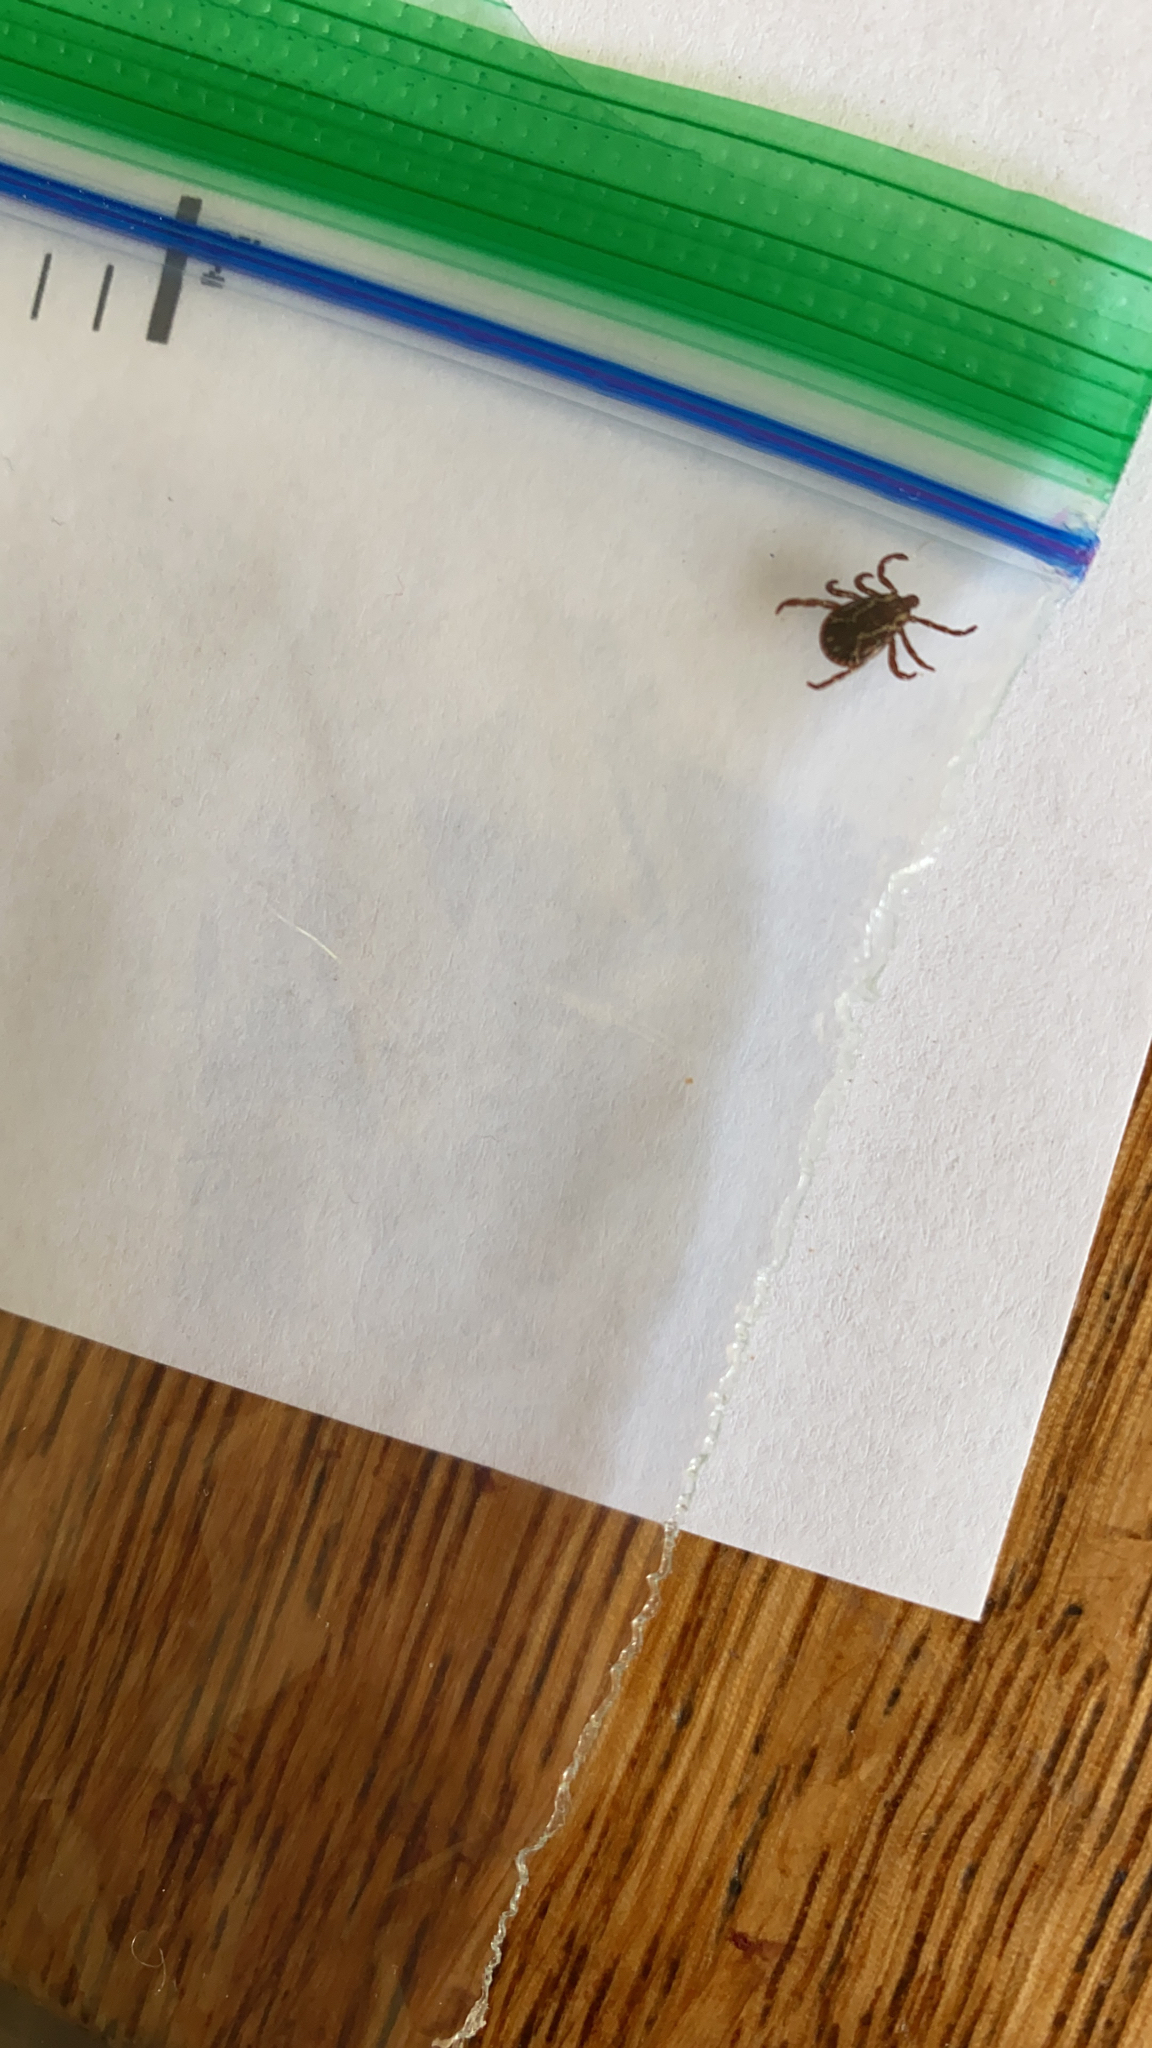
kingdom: Animalia
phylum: Arthropoda
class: Arachnida
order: Ixodida
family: Ixodidae
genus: Dermacentor
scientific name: Dermacentor variabilis
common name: American dog tick
